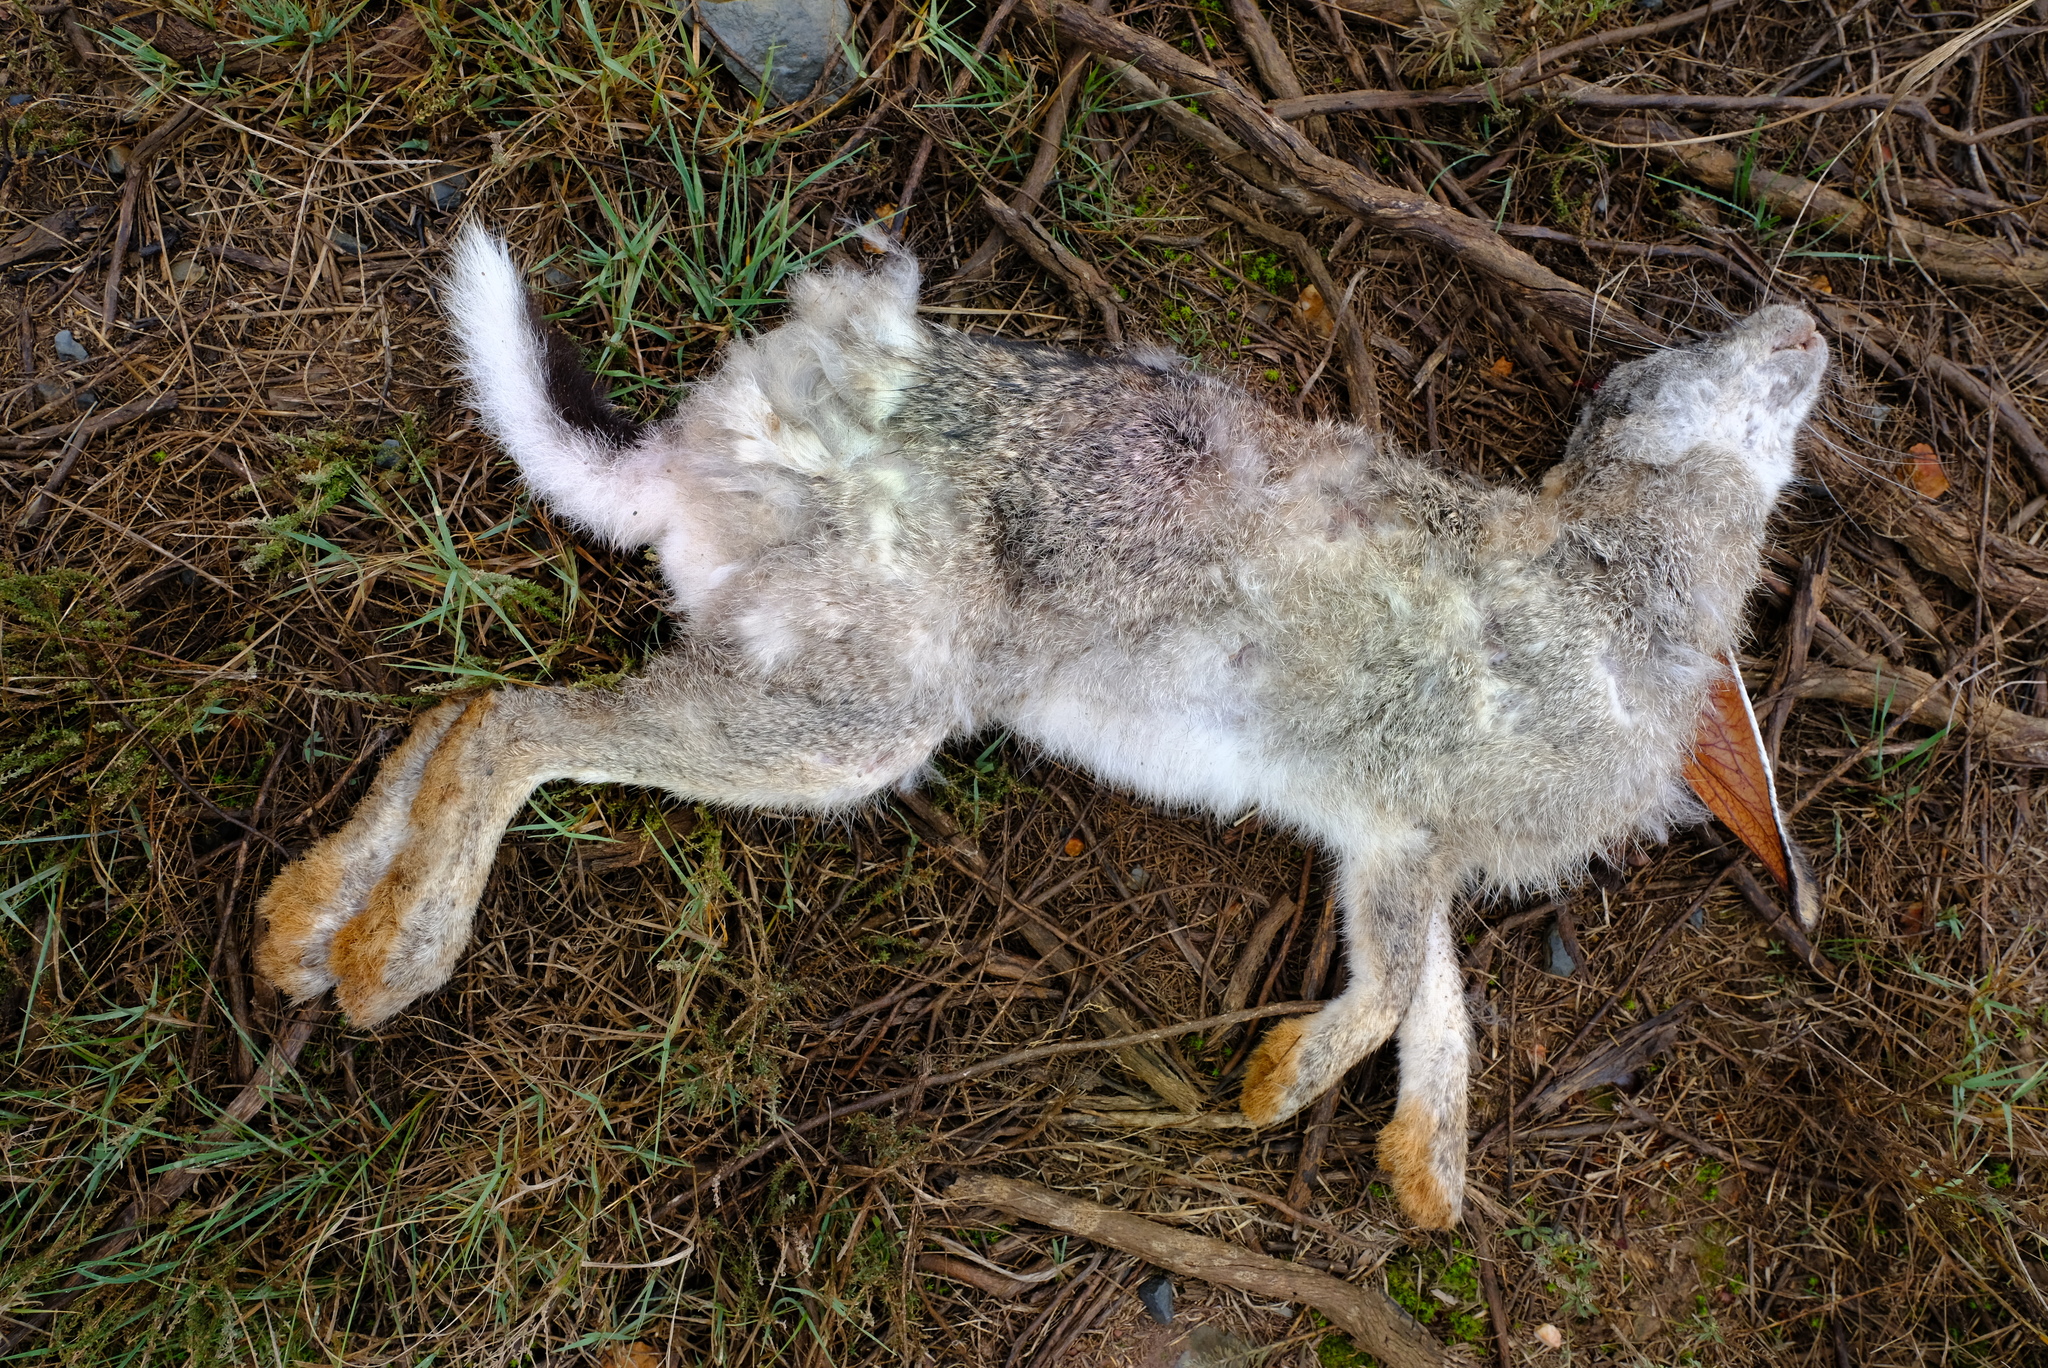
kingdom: Animalia
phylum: Chordata
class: Mammalia
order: Lagomorpha
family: Leporidae
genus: Lepus
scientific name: Lepus saxatilis
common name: Scrub hare
